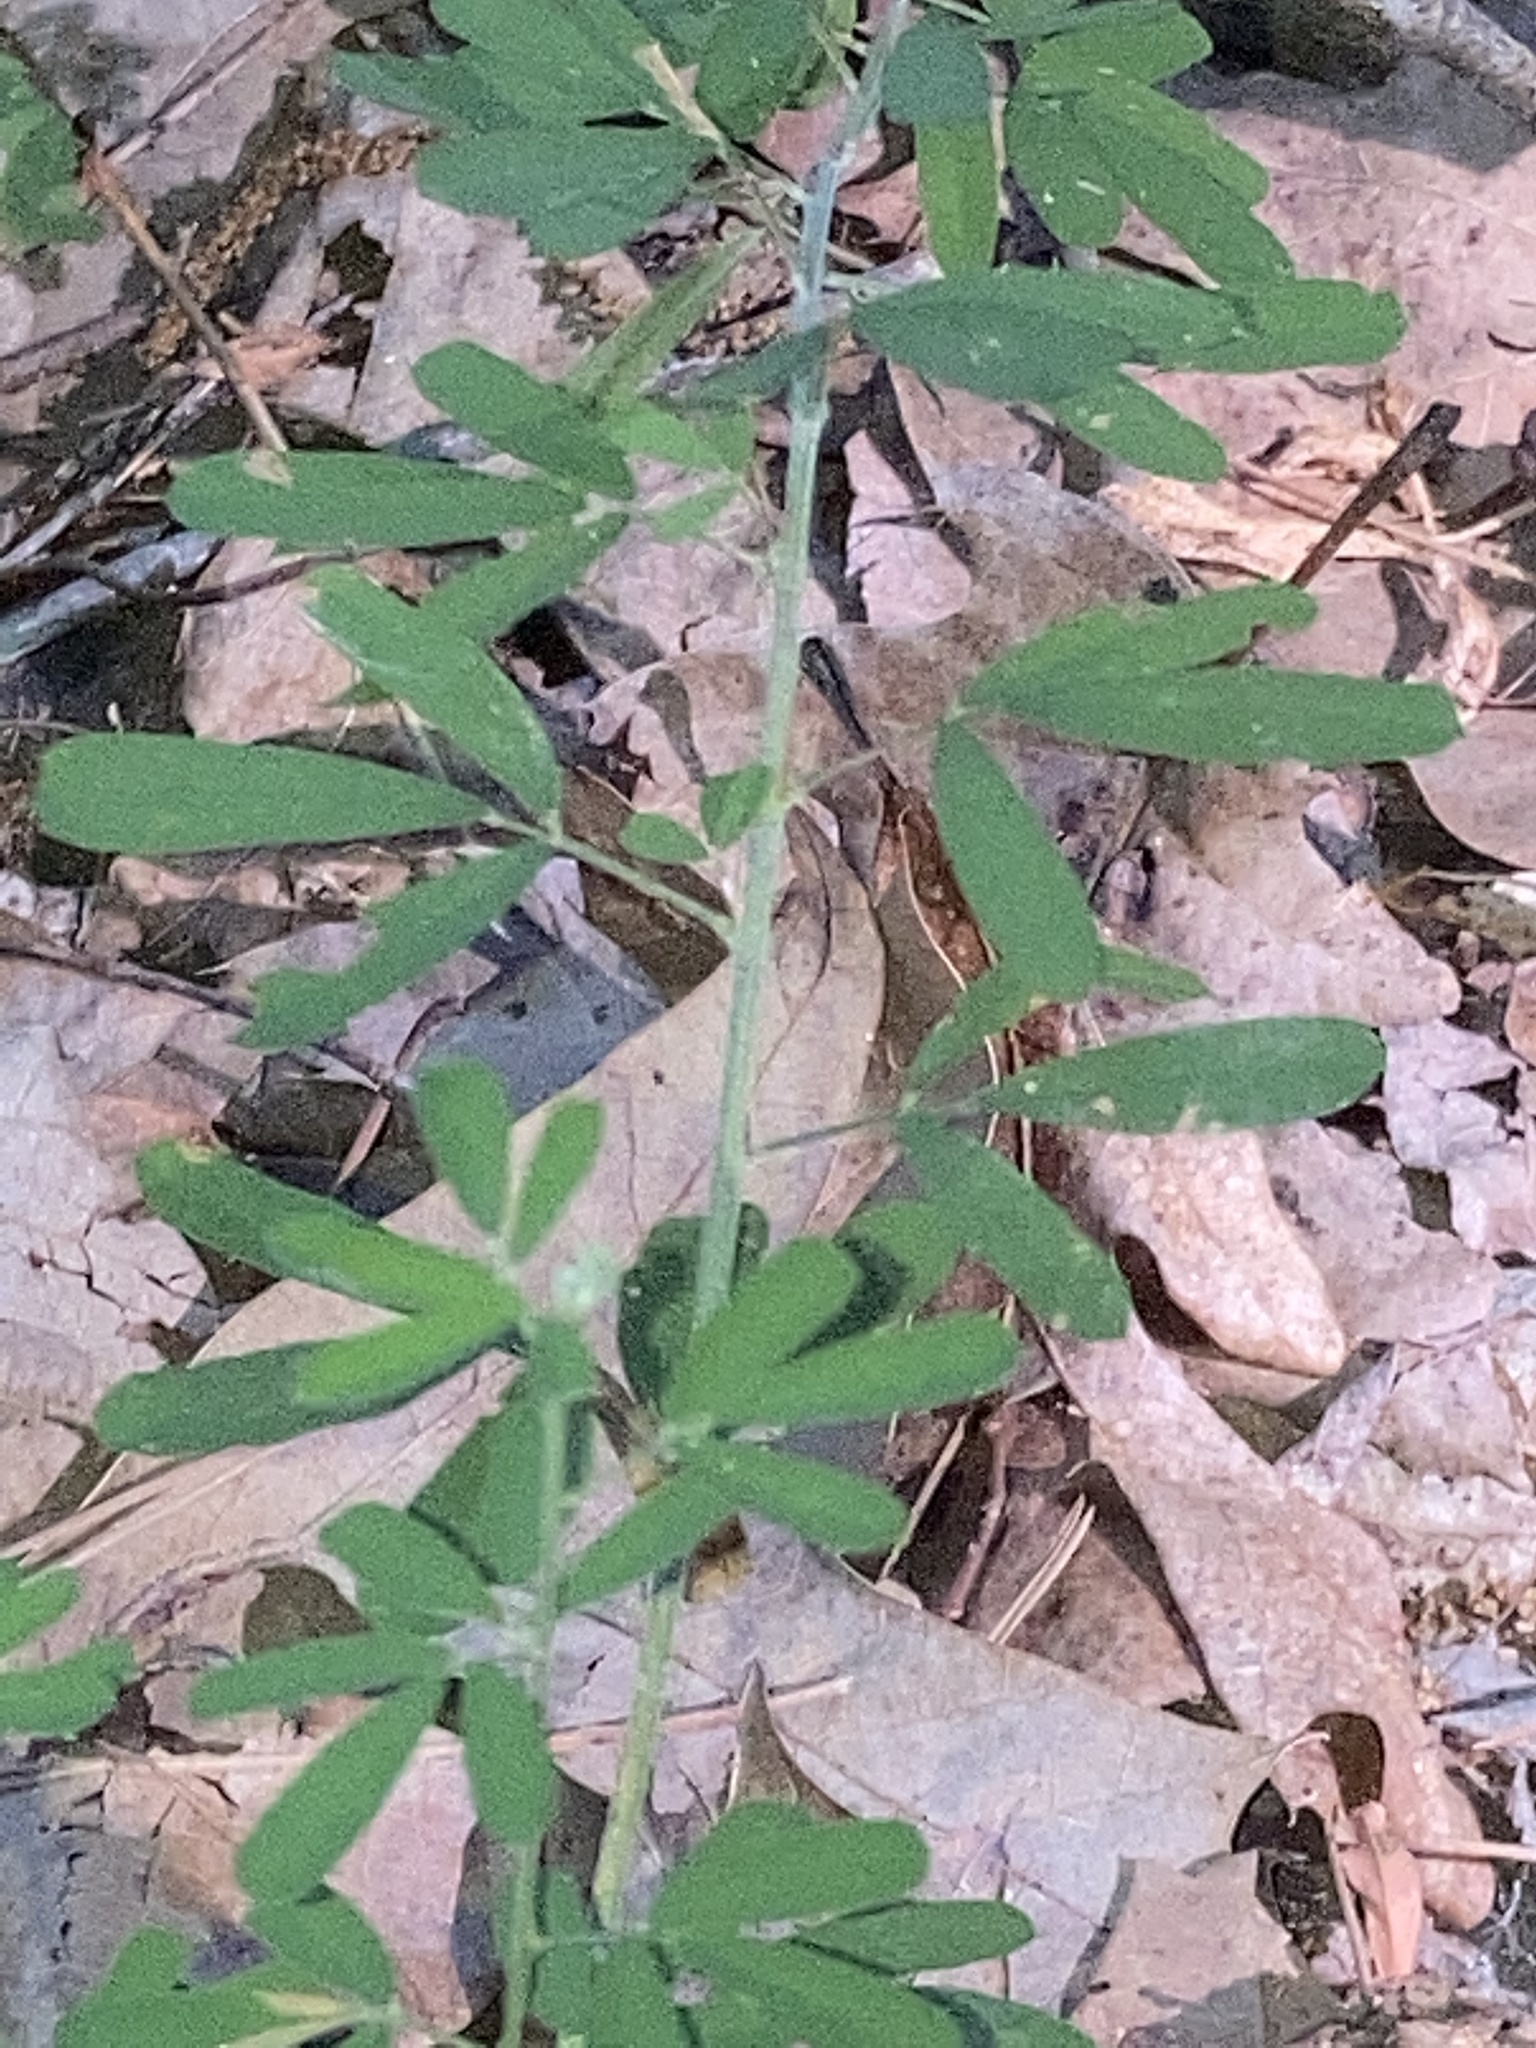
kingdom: Plantae
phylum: Tracheophyta
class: Magnoliopsida
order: Fabales
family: Fabaceae
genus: Lespedeza
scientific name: Lespedeza cuneata
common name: Chinese bush-clover
